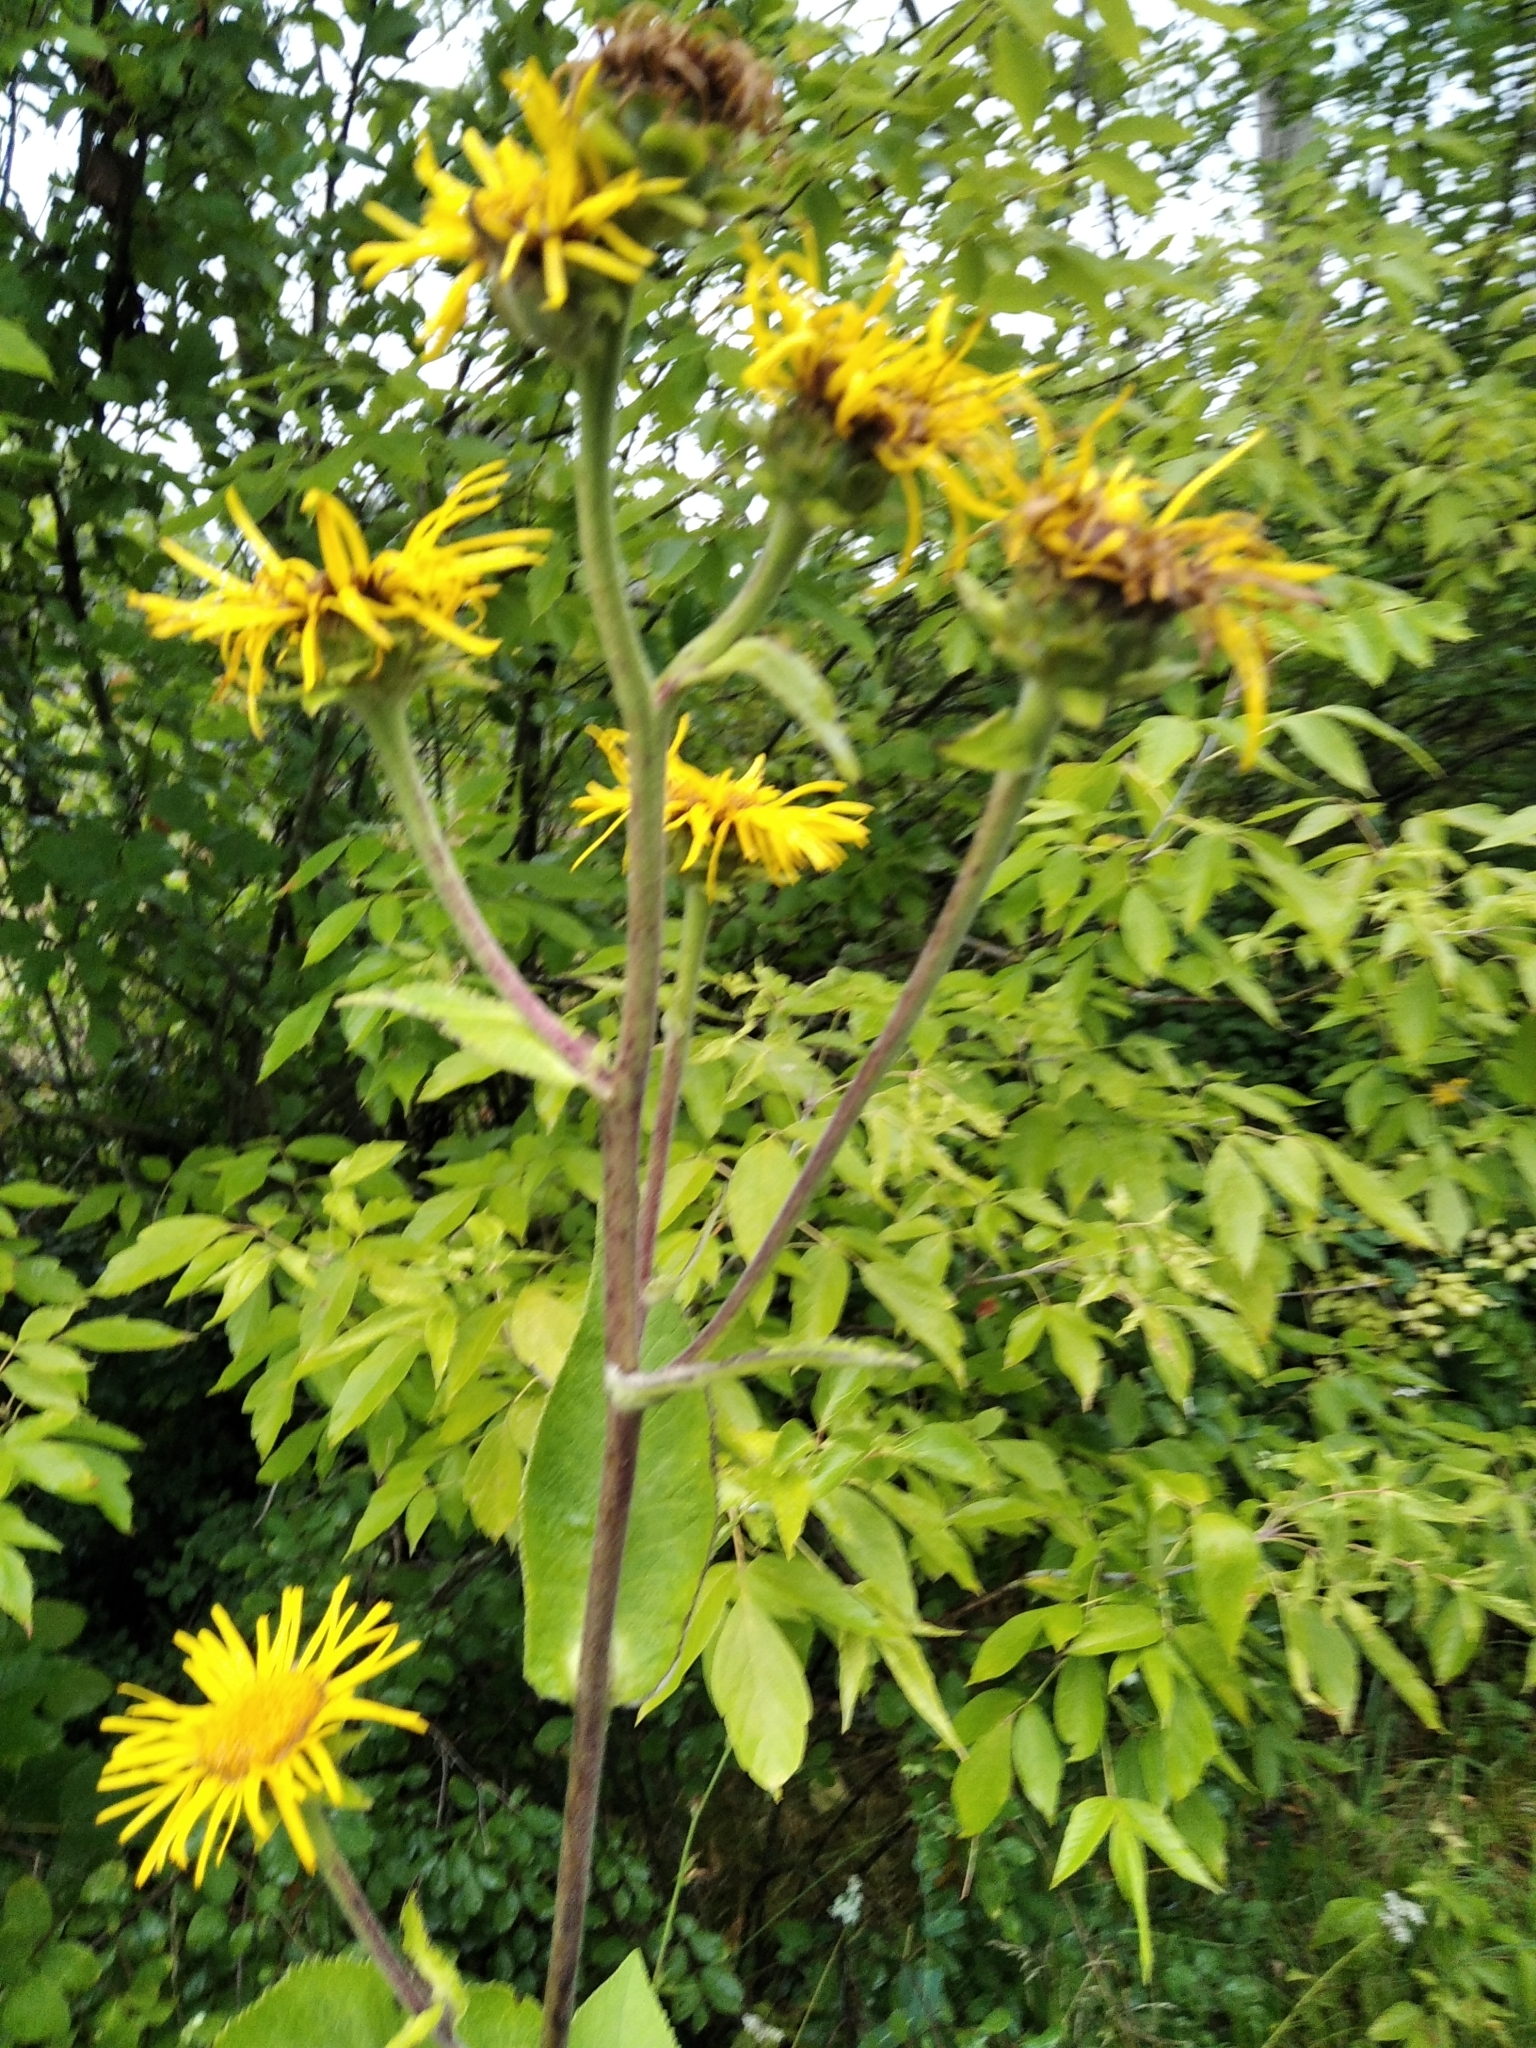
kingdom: Plantae
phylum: Tracheophyta
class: Magnoliopsida
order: Asterales
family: Asteraceae
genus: Inula
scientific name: Inula helenium
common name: Elecampane
